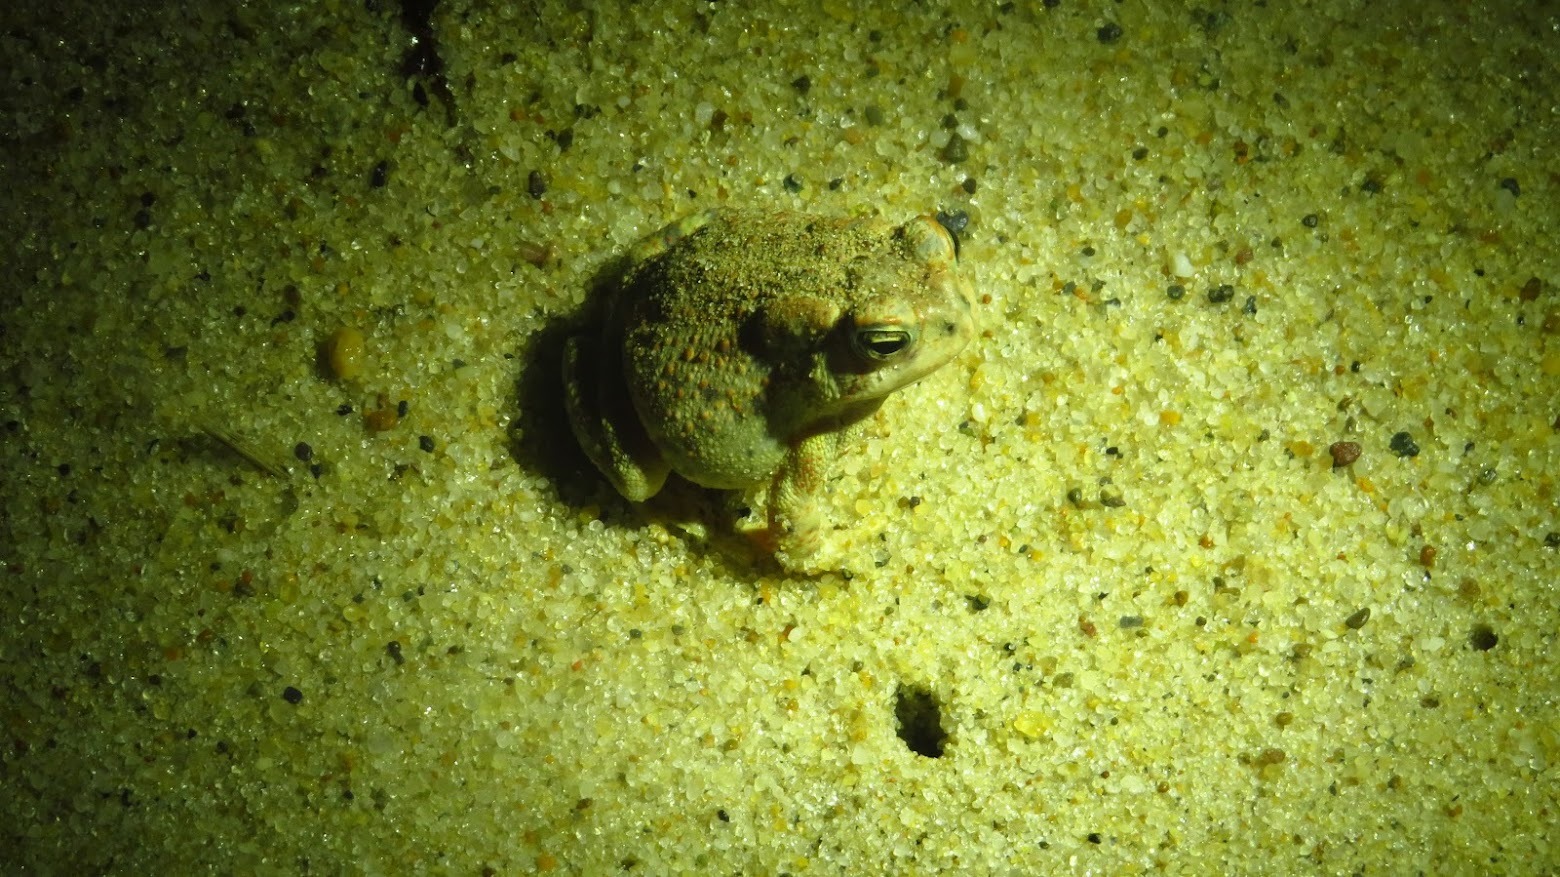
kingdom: Animalia
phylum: Chordata
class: Amphibia
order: Anura
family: Bufonidae
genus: Anaxyrus
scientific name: Anaxyrus fowleri
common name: Fowler's toad
